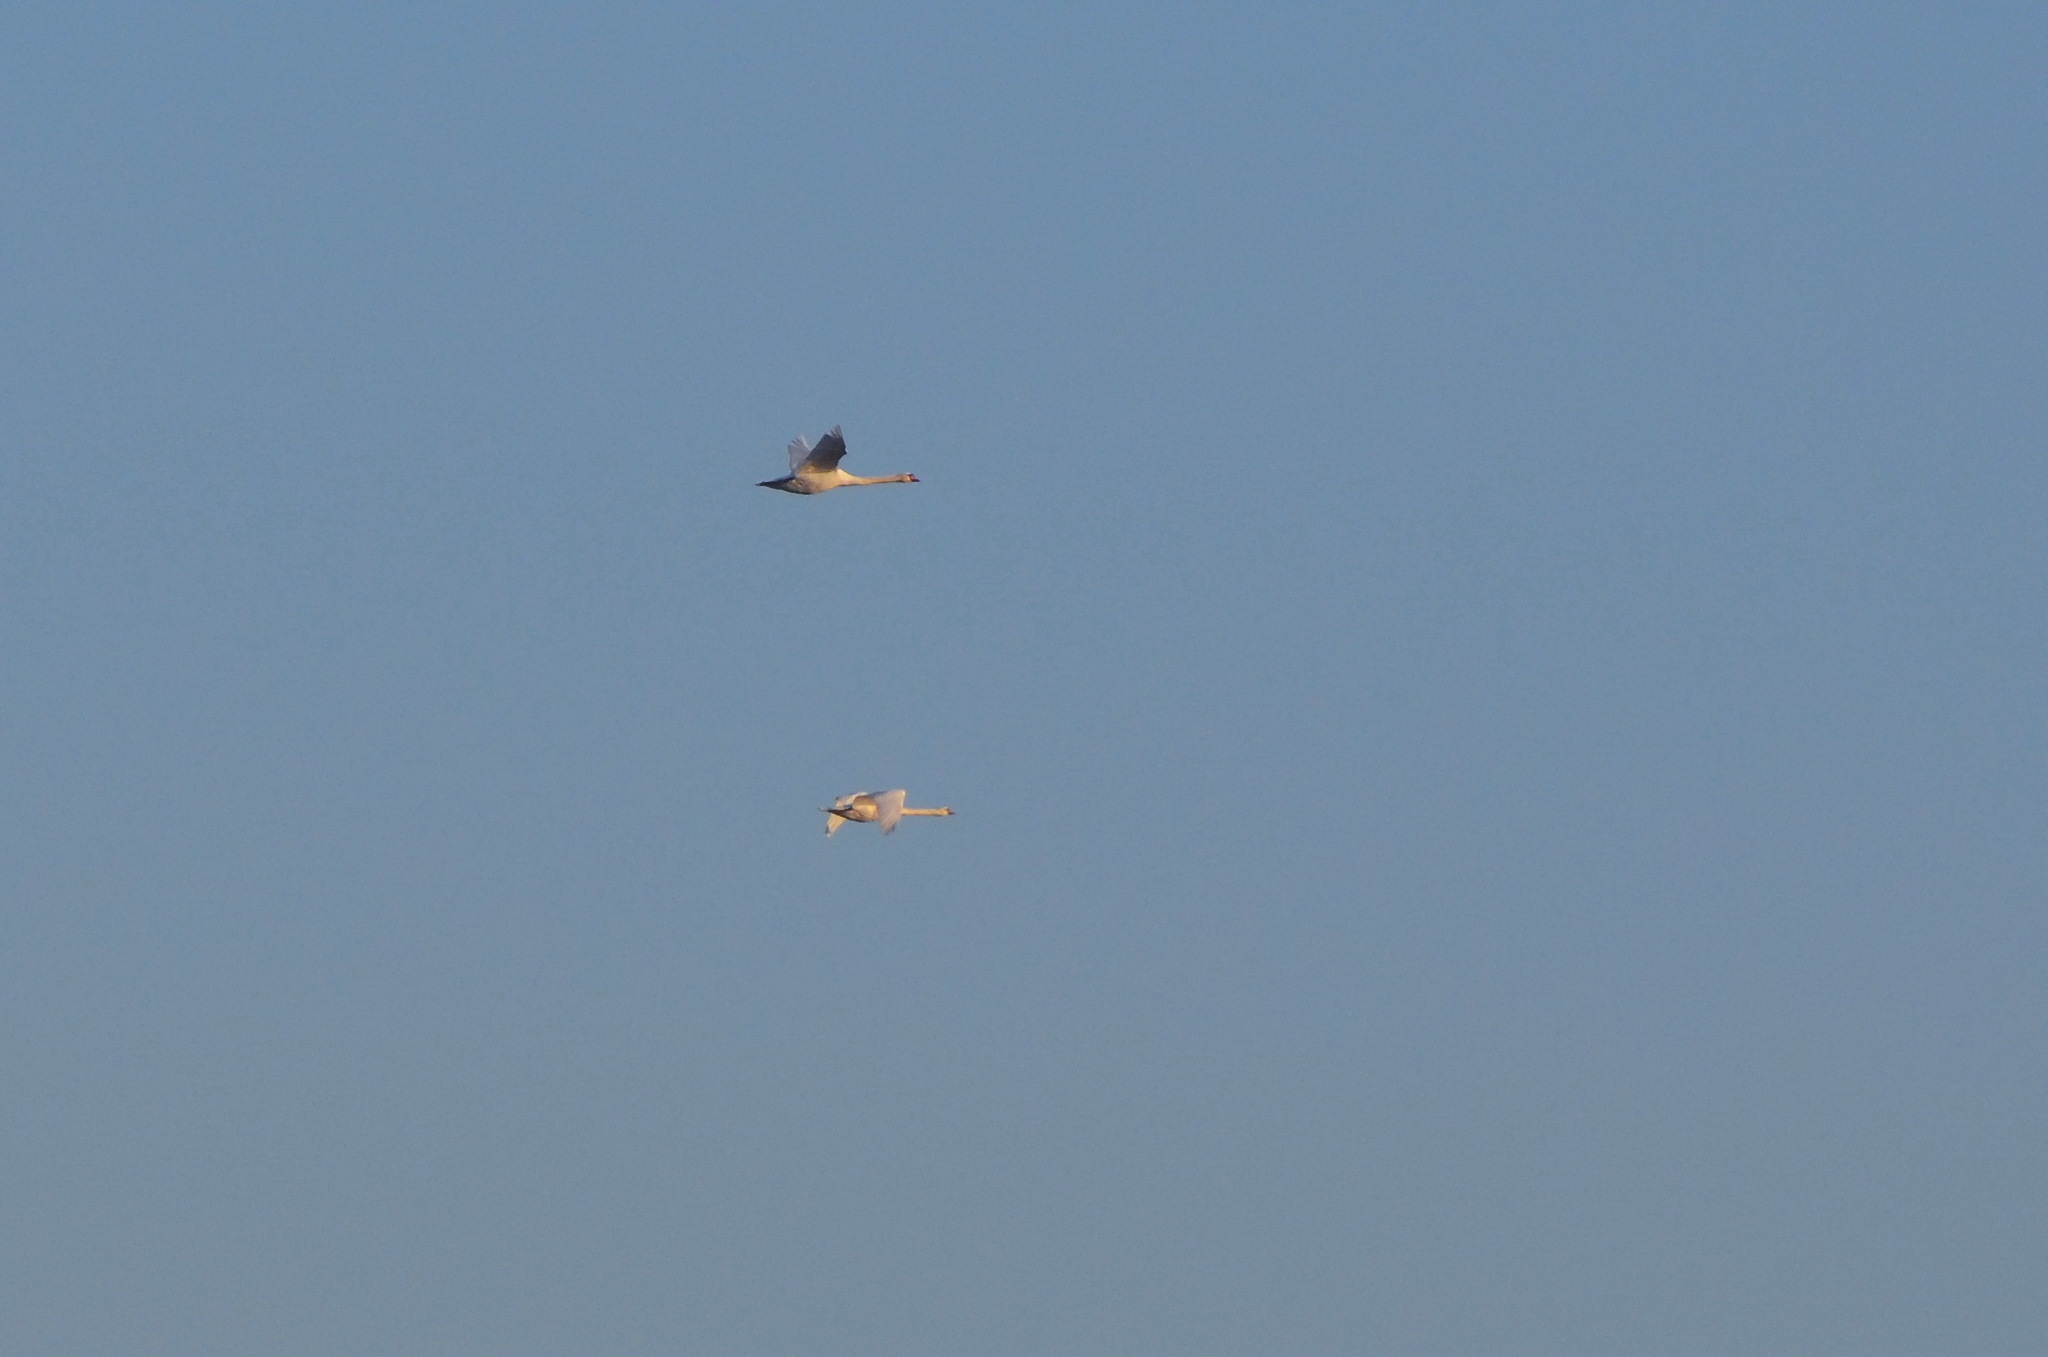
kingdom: Animalia
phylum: Chordata
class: Aves
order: Anseriformes
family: Anatidae
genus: Cygnus
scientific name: Cygnus olor
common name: Mute swan
